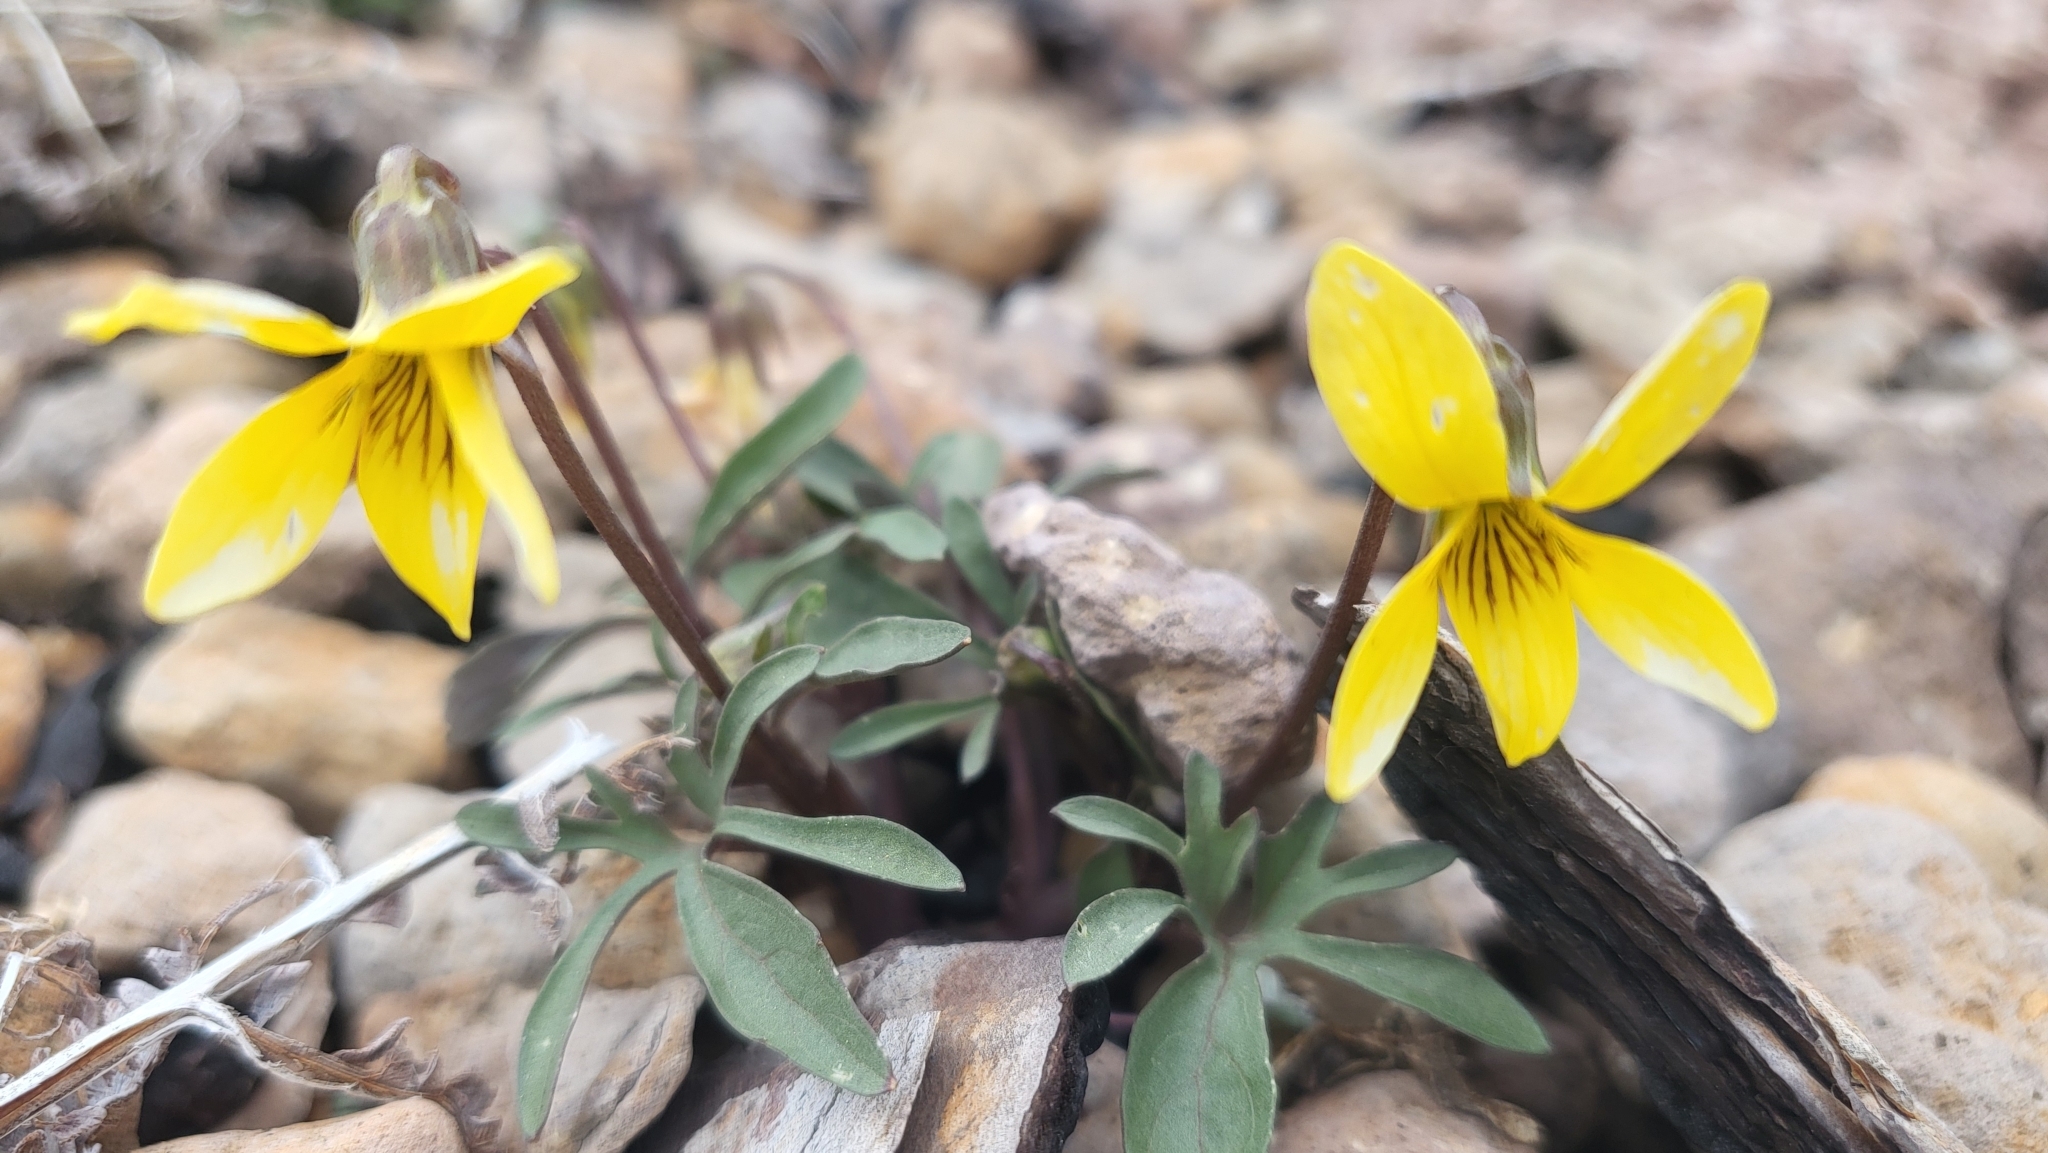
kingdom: Plantae
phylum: Tracheophyta
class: Magnoliopsida
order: Malpighiales
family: Violaceae
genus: Viola
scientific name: Viola lobata
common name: Pine violet
